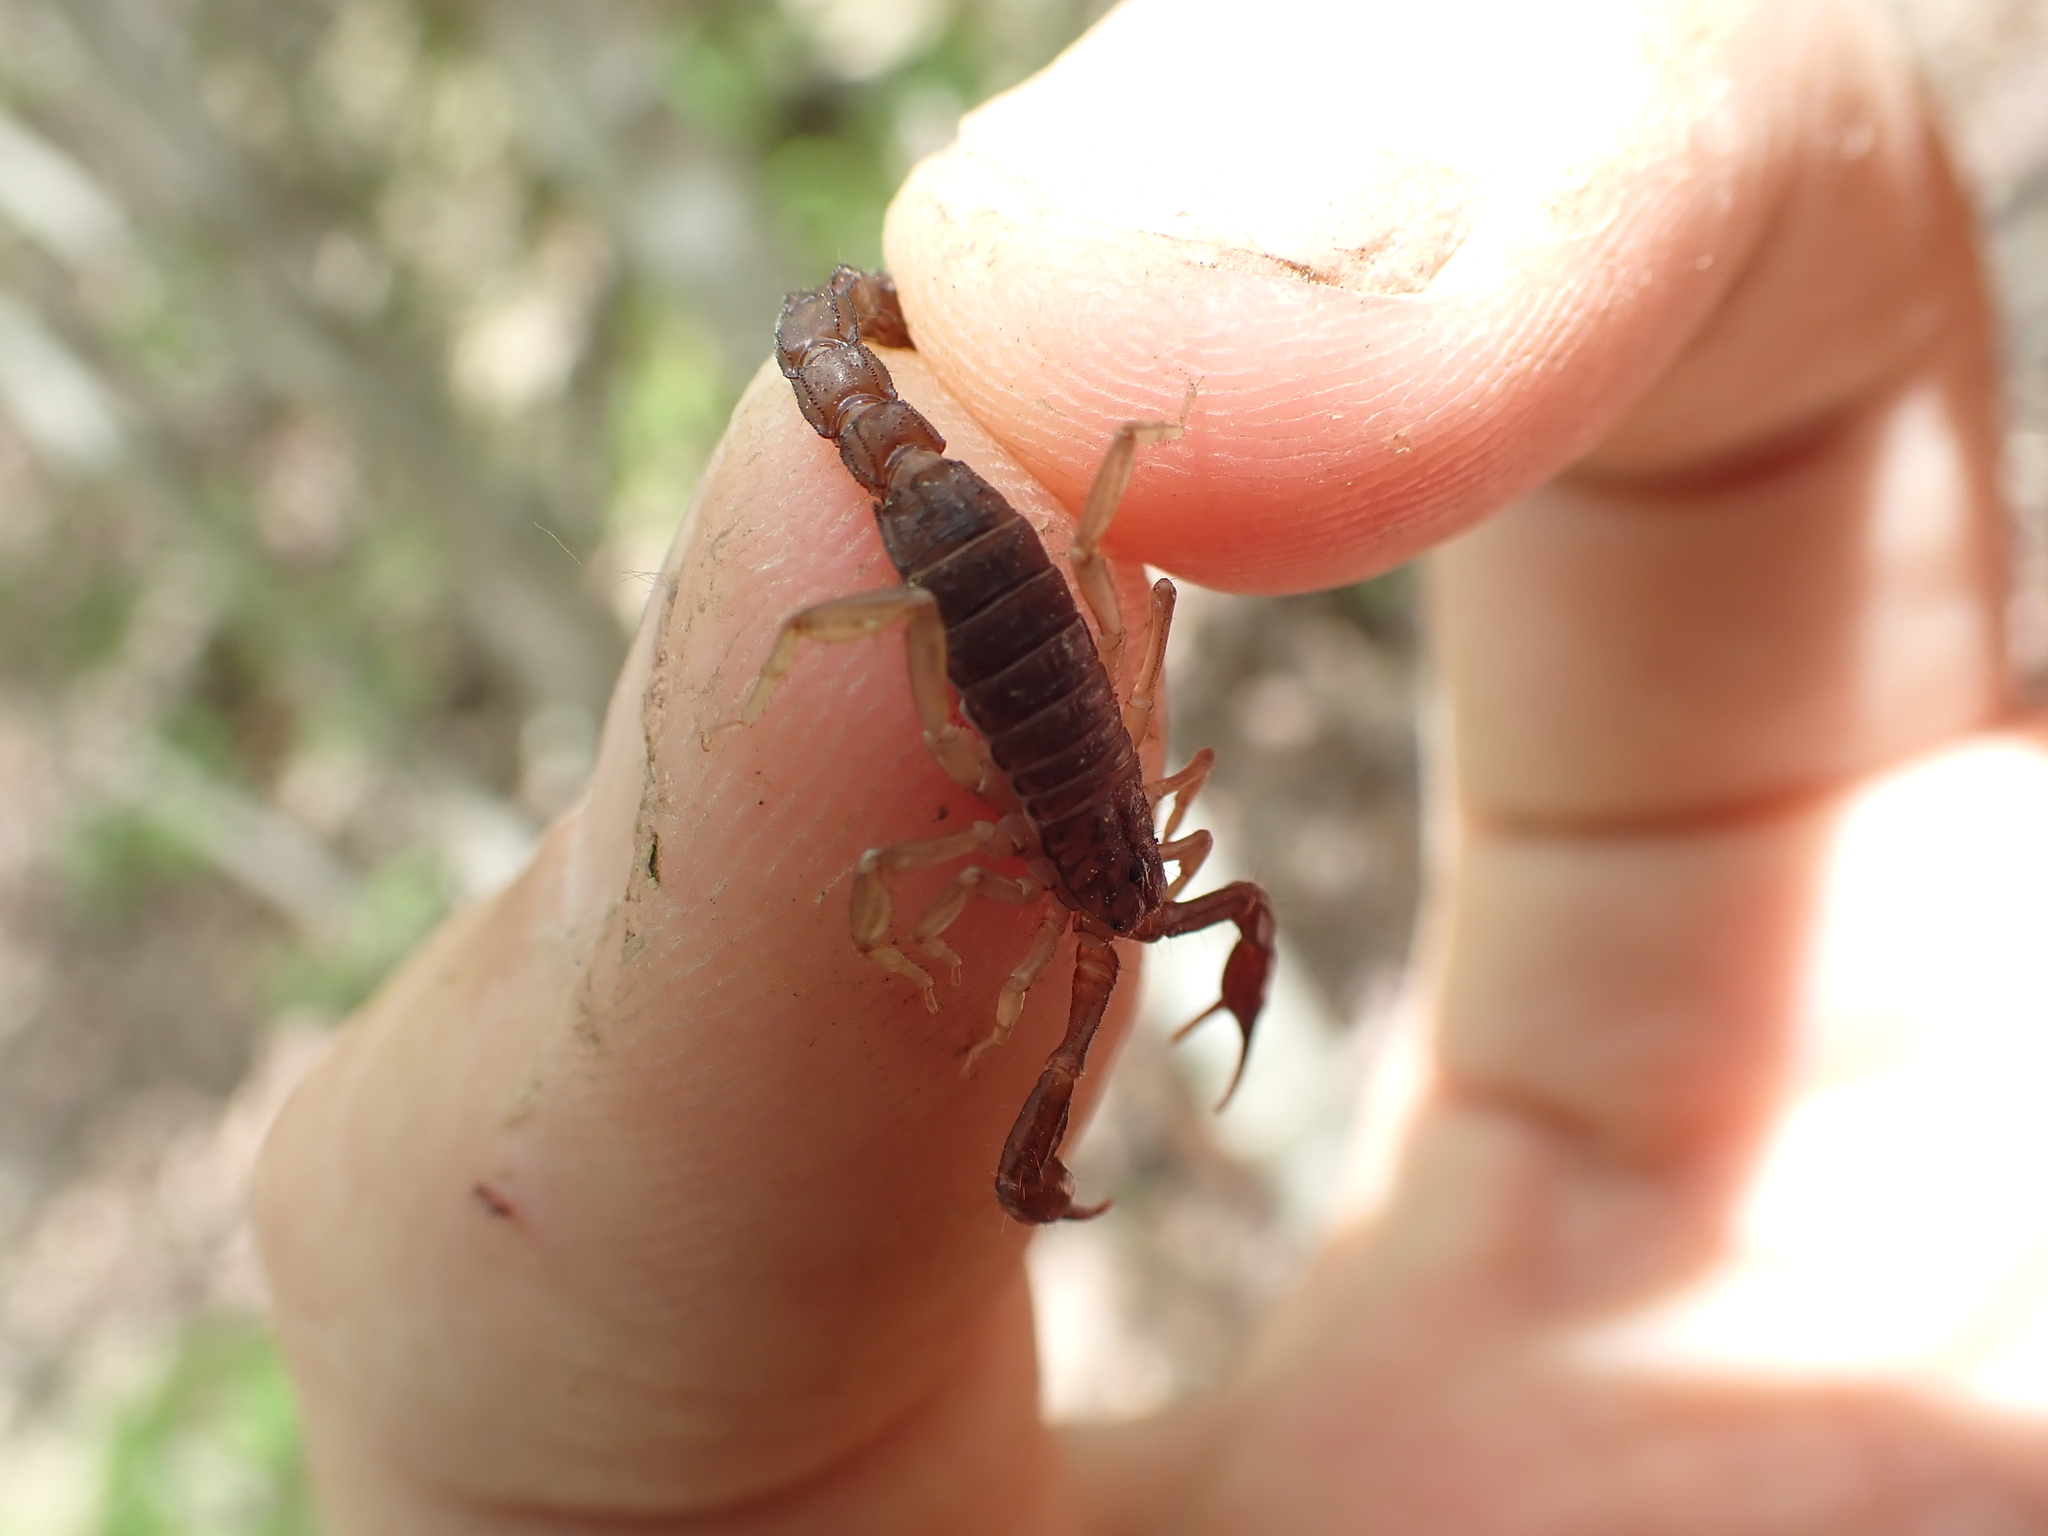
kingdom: Animalia
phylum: Arthropoda
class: Arachnida
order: Scorpiones
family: Vaejovidae
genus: Vaejovis
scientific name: Vaejovis carolinianus
